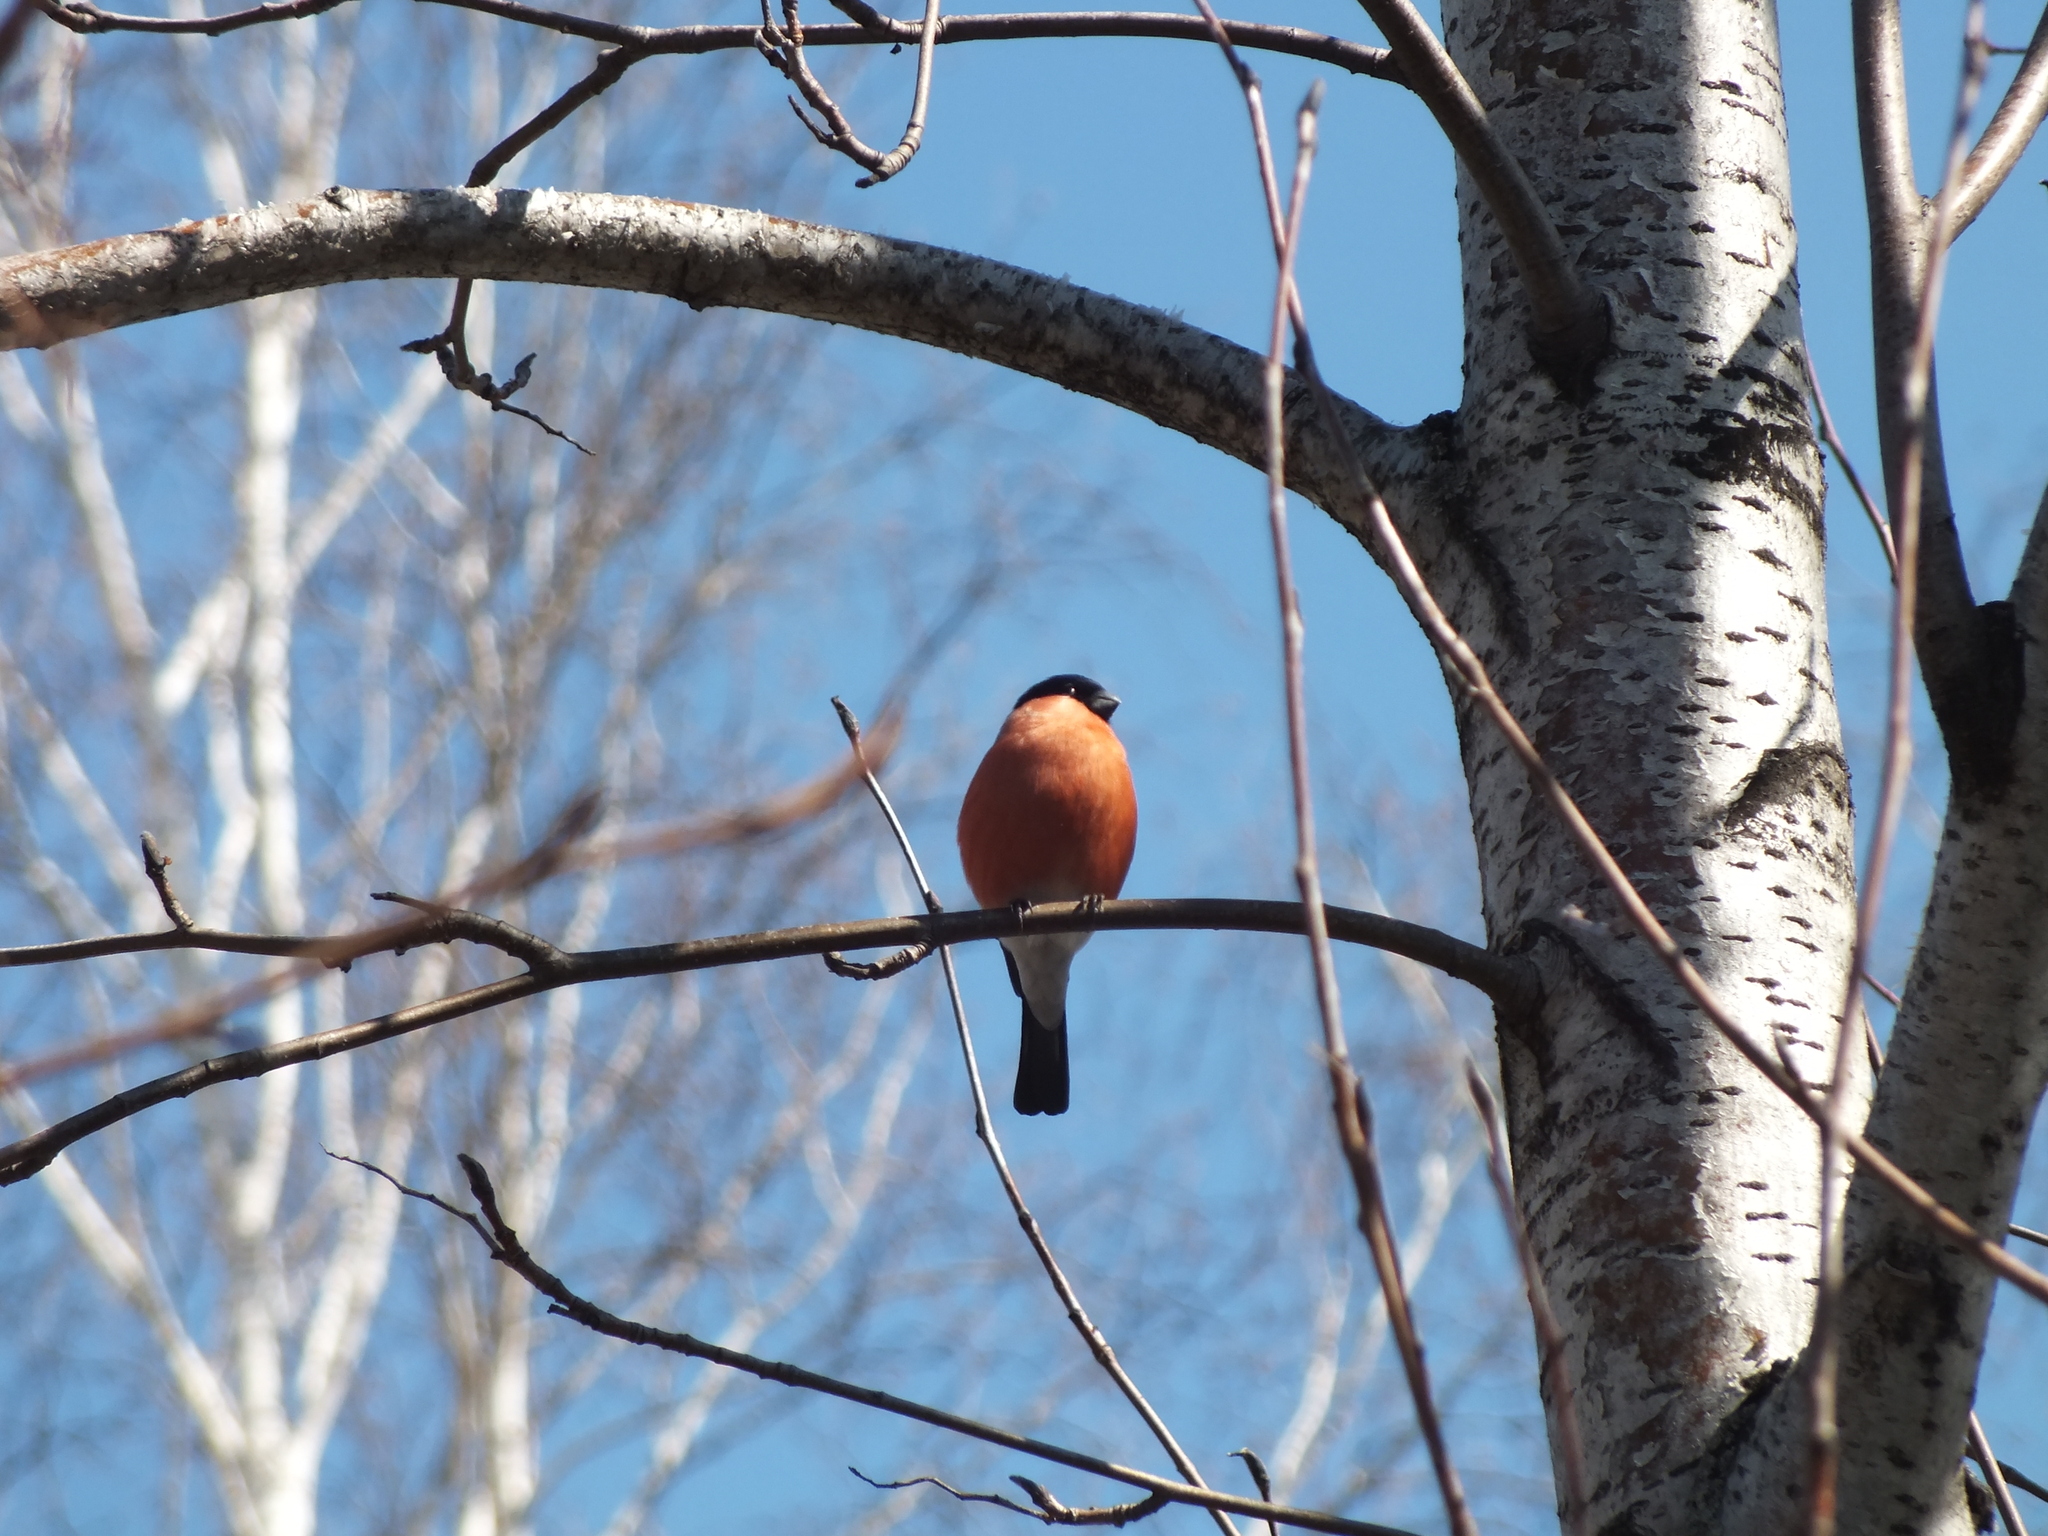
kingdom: Animalia
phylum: Chordata
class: Aves
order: Passeriformes
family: Fringillidae
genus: Pyrrhula
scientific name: Pyrrhula pyrrhula
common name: Eurasian bullfinch
